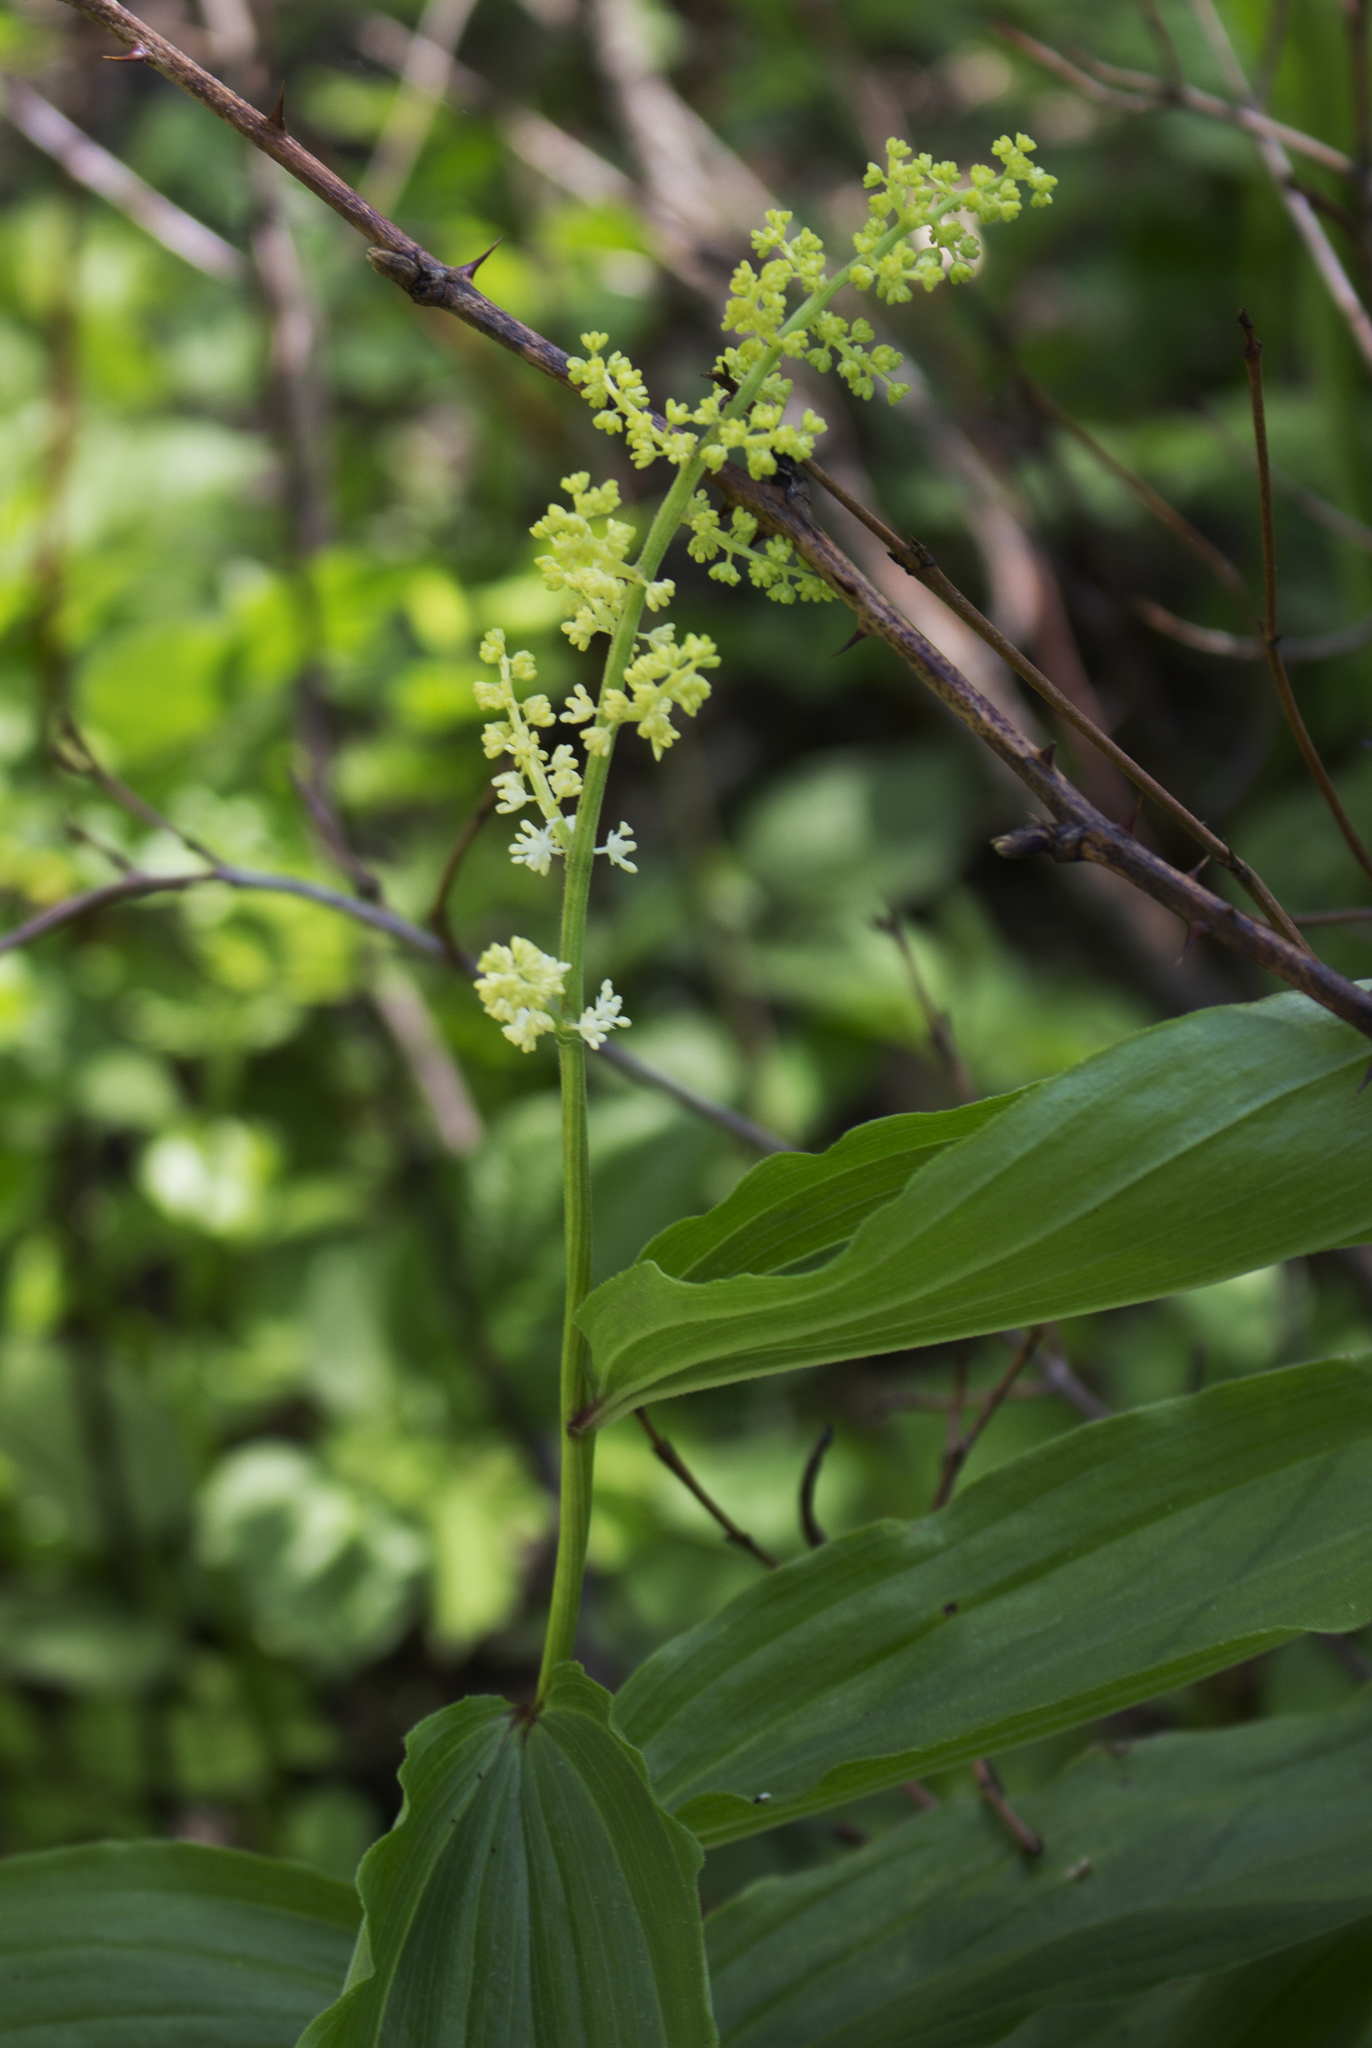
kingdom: Plantae
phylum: Tracheophyta
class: Liliopsida
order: Asparagales
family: Asparagaceae
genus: Maianthemum
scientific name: Maianthemum racemosum
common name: False spikenard
